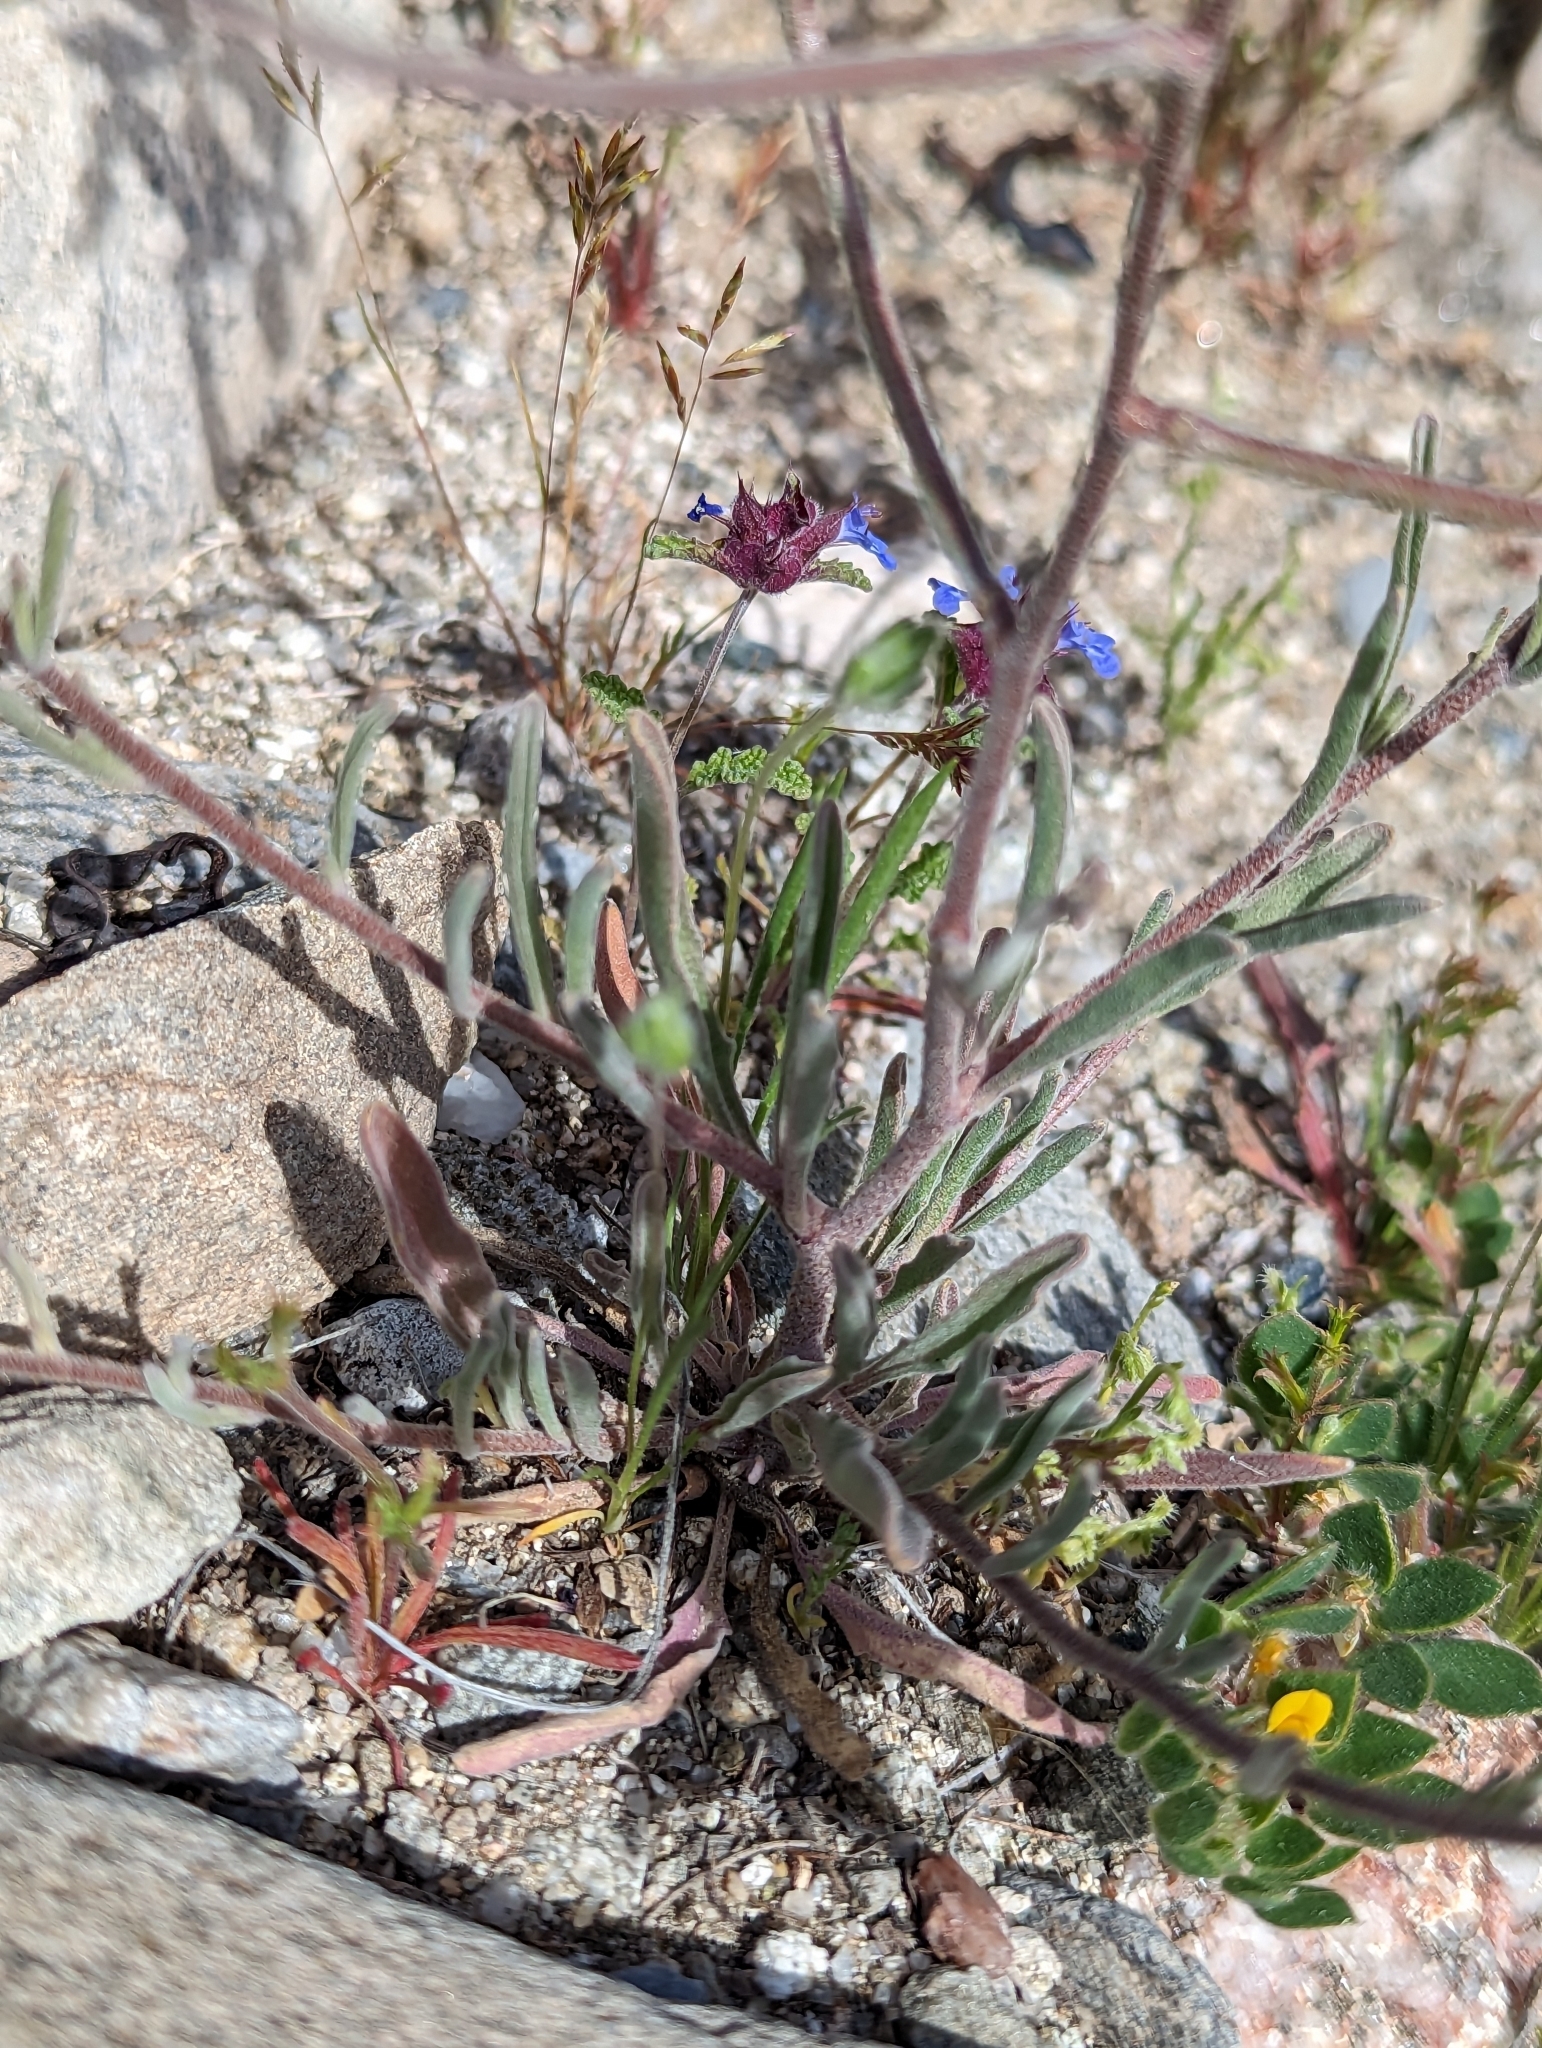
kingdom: Plantae
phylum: Tracheophyta
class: Magnoliopsida
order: Brassicales
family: Brassicaceae
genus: Matthiola
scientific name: Matthiola longipetala
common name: Night-scented stock
